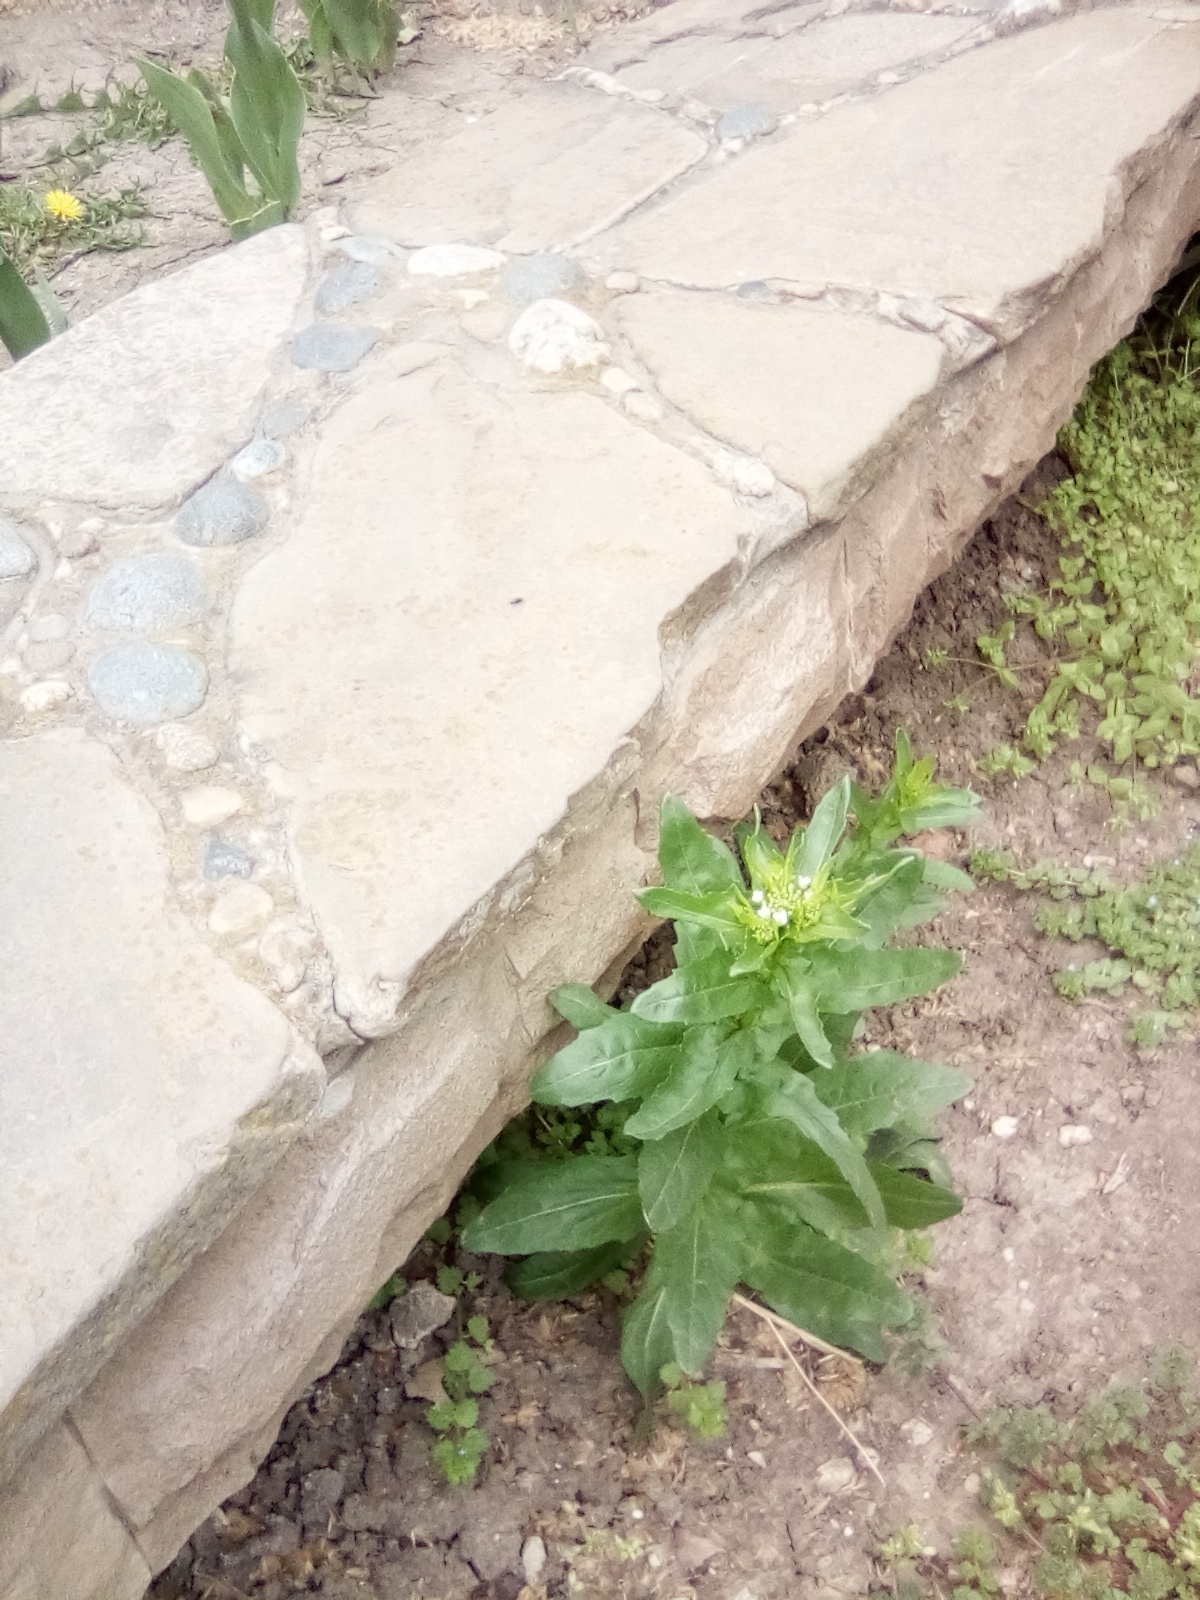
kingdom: Plantae
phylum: Tracheophyta
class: Magnoliopsida
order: Brassicales
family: Brassicaceae
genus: Thlaspi
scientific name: Thlaspi arvense
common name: Field pennycress
